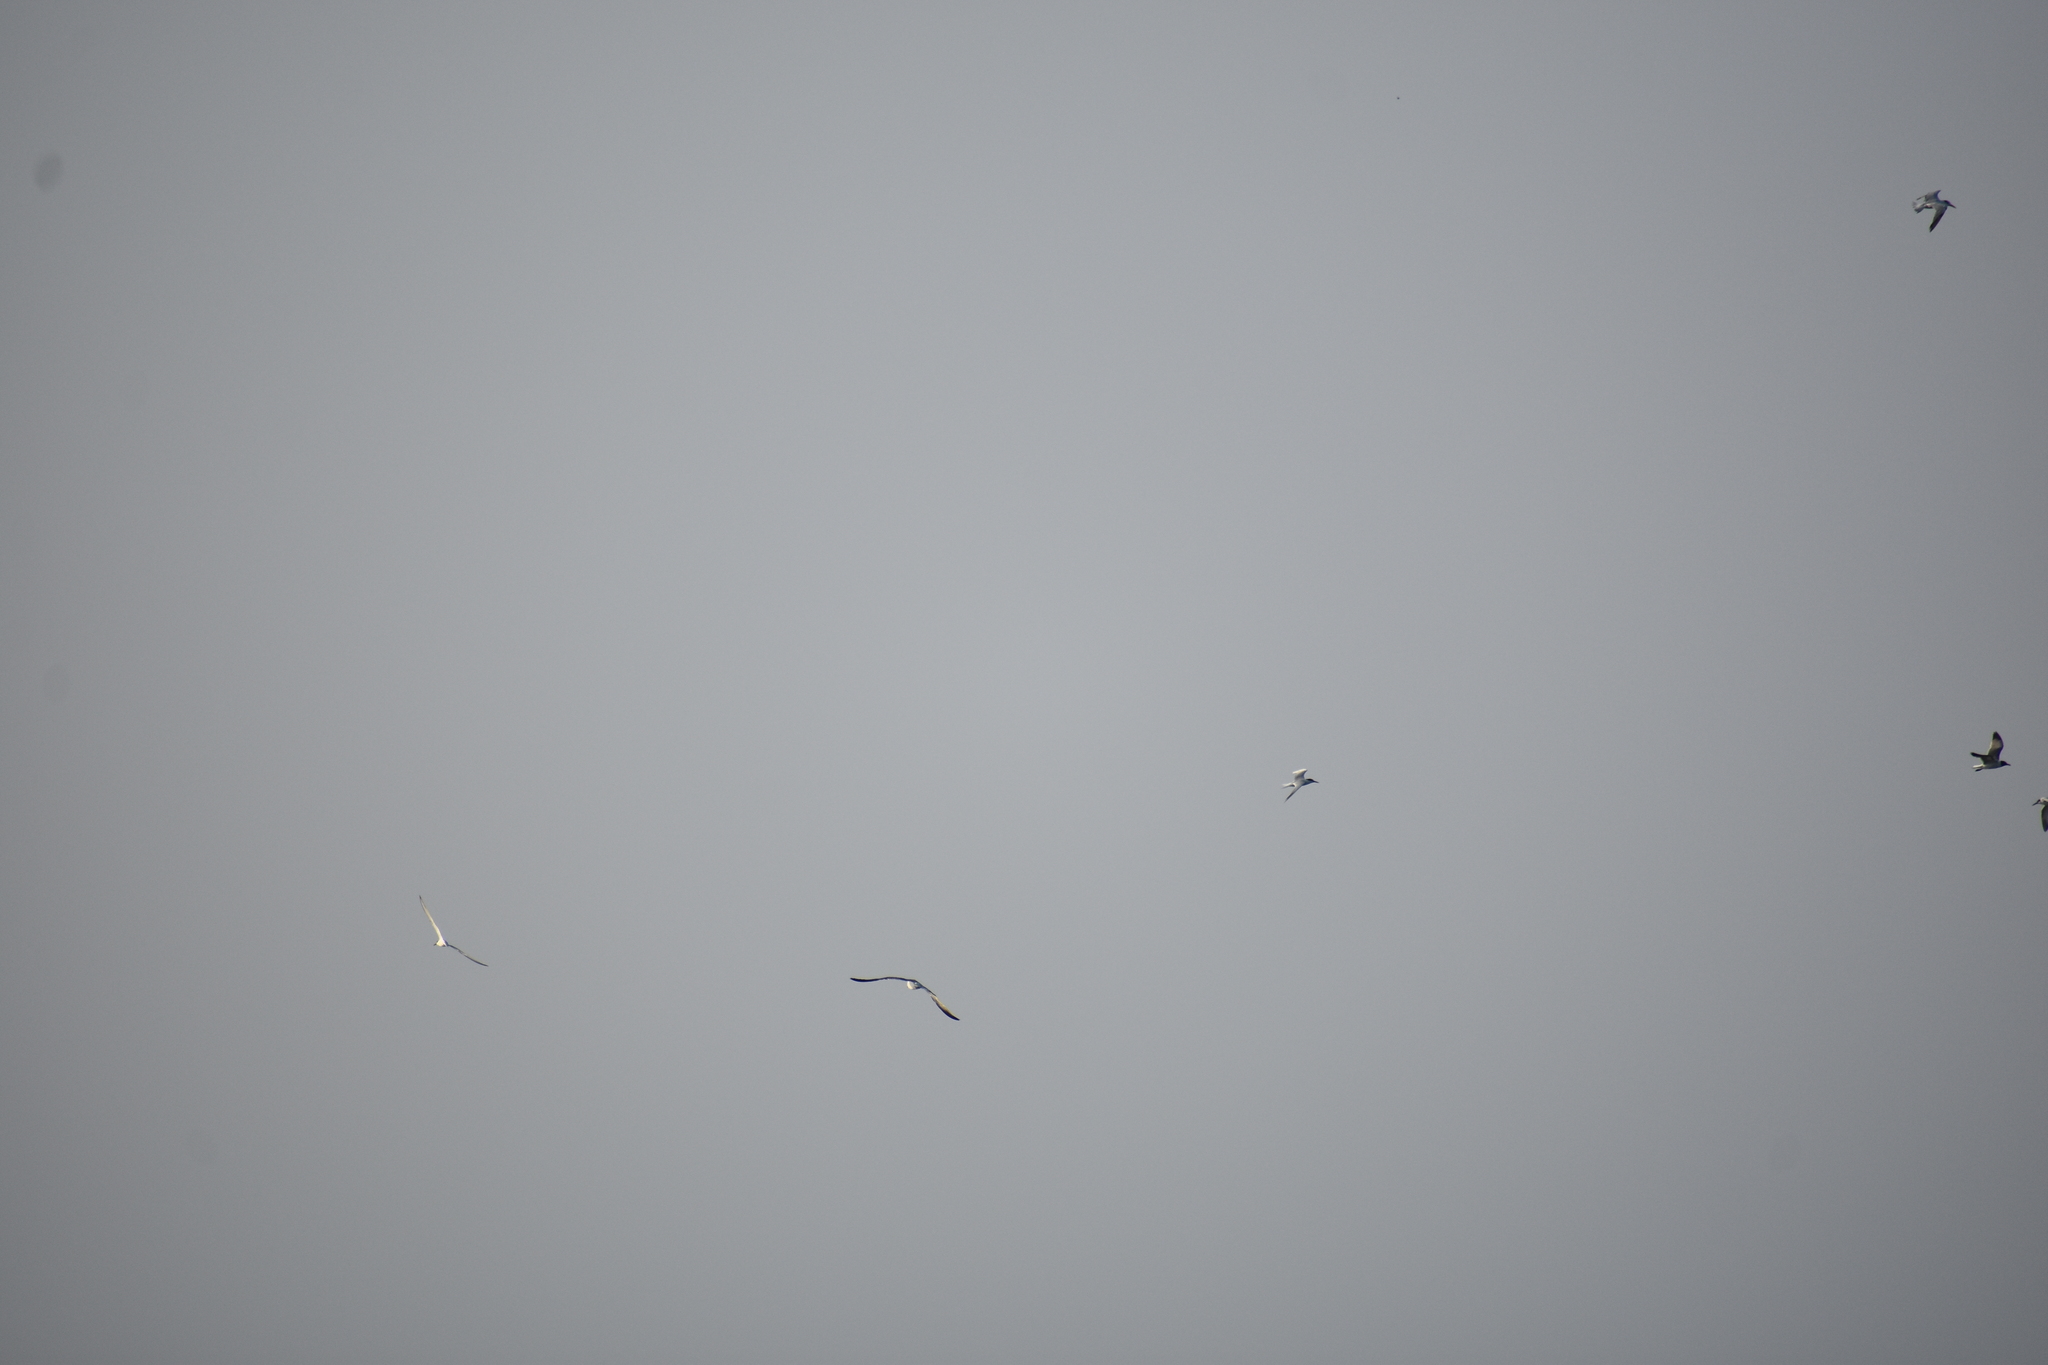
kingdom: Animalia
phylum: Chordata
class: Aves
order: Charadriiformes
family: Laridae
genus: Leucophaeus
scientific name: Leucophaeus atricilla
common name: Laughing gull
